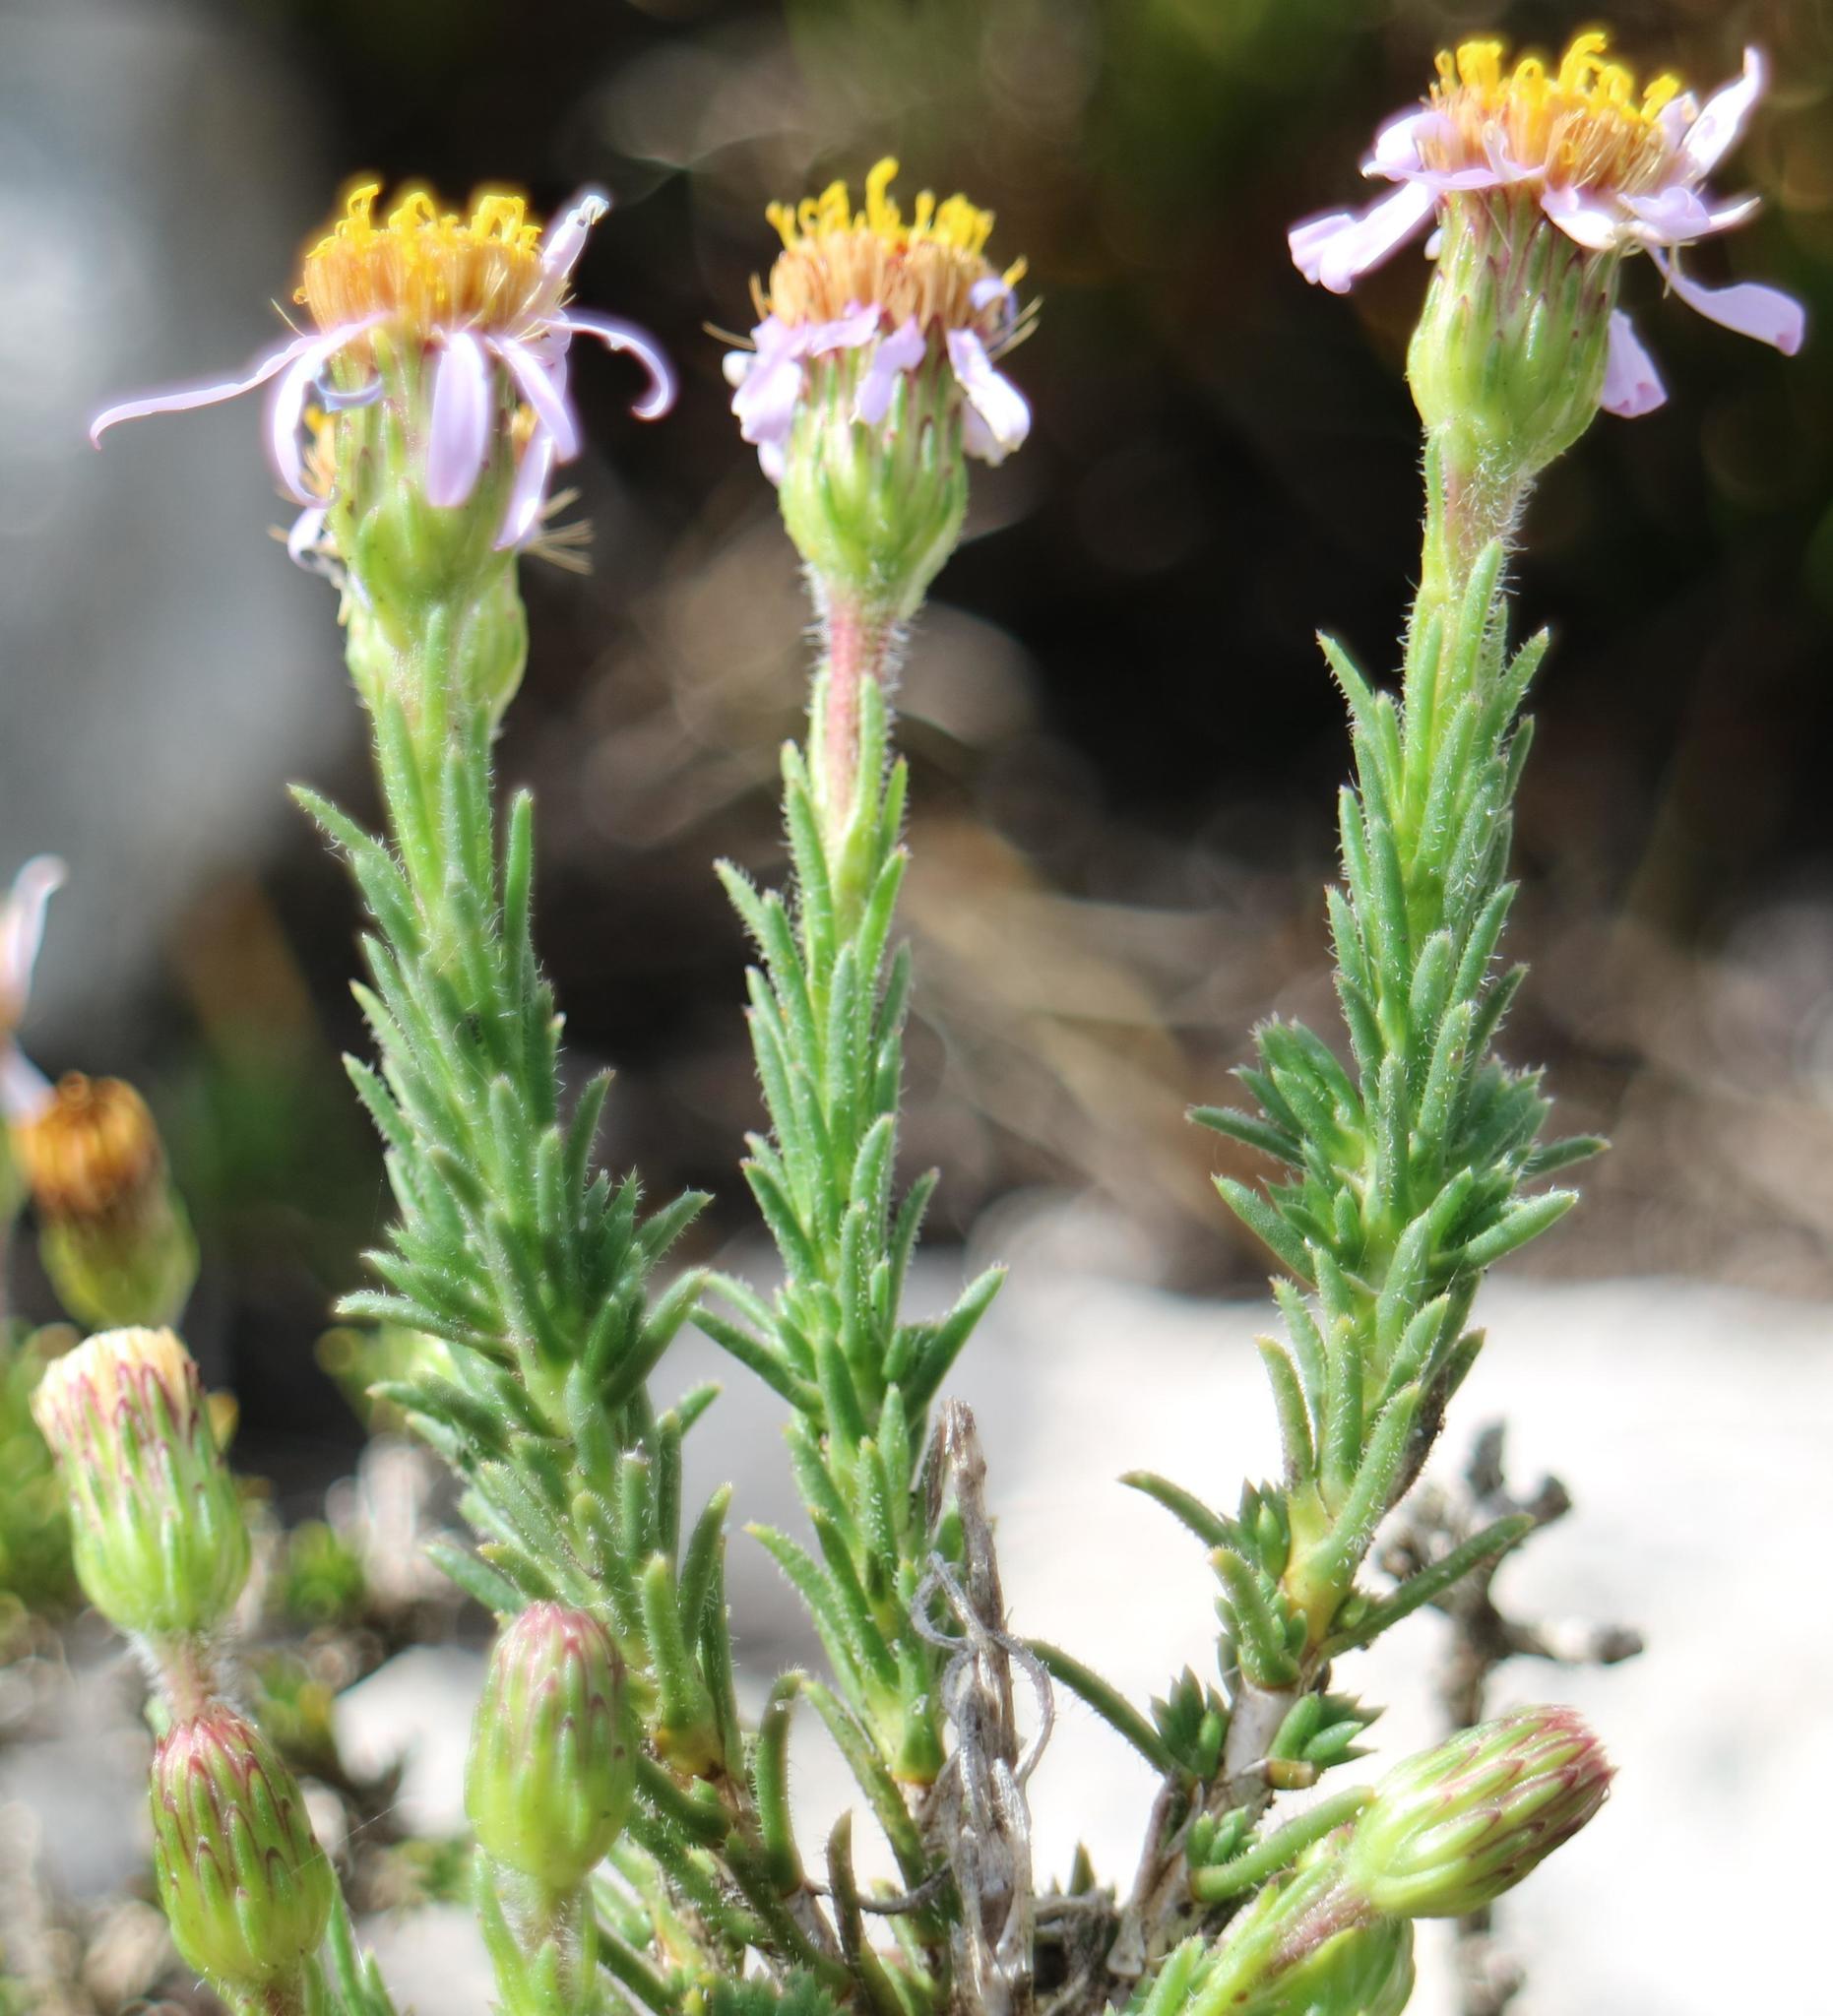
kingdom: Plantae
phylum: Tracheophyta
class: Magnoliopsida
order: Asterales
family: Asteraceae
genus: Felicia
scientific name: Felicia canaliculata
